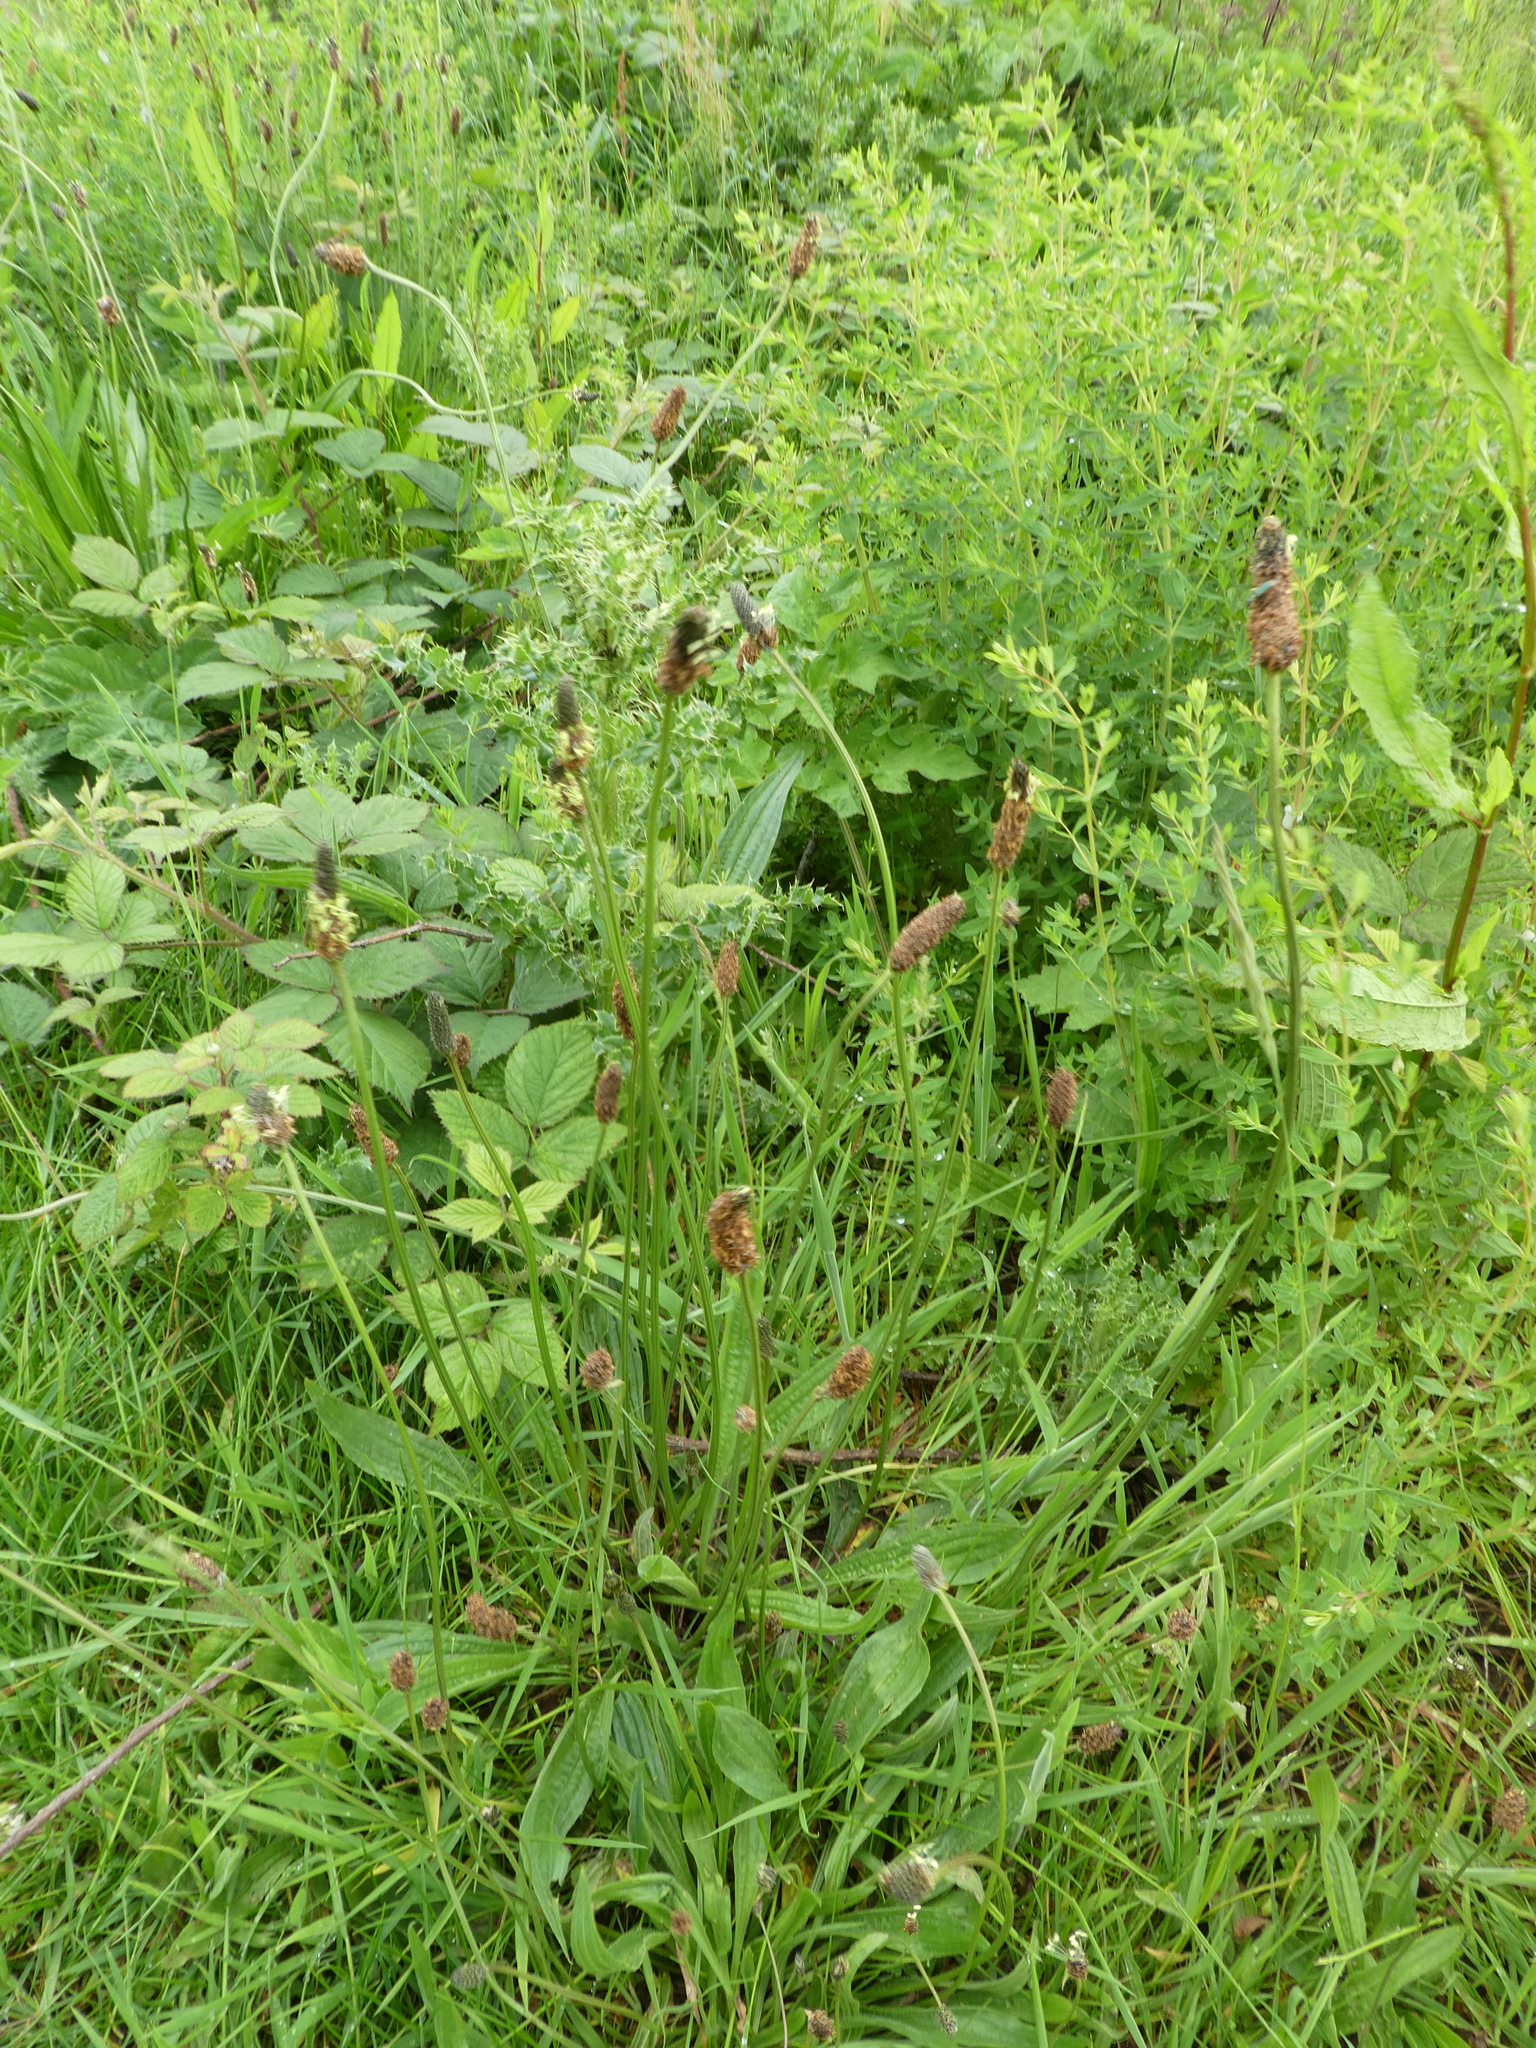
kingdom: Plantae
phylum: Tracheophyta
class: Magnoliopsida
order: Lamiales
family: Plantaginaceae
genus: Plantago
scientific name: Plantago lanceolata
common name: Ribwort plantain
